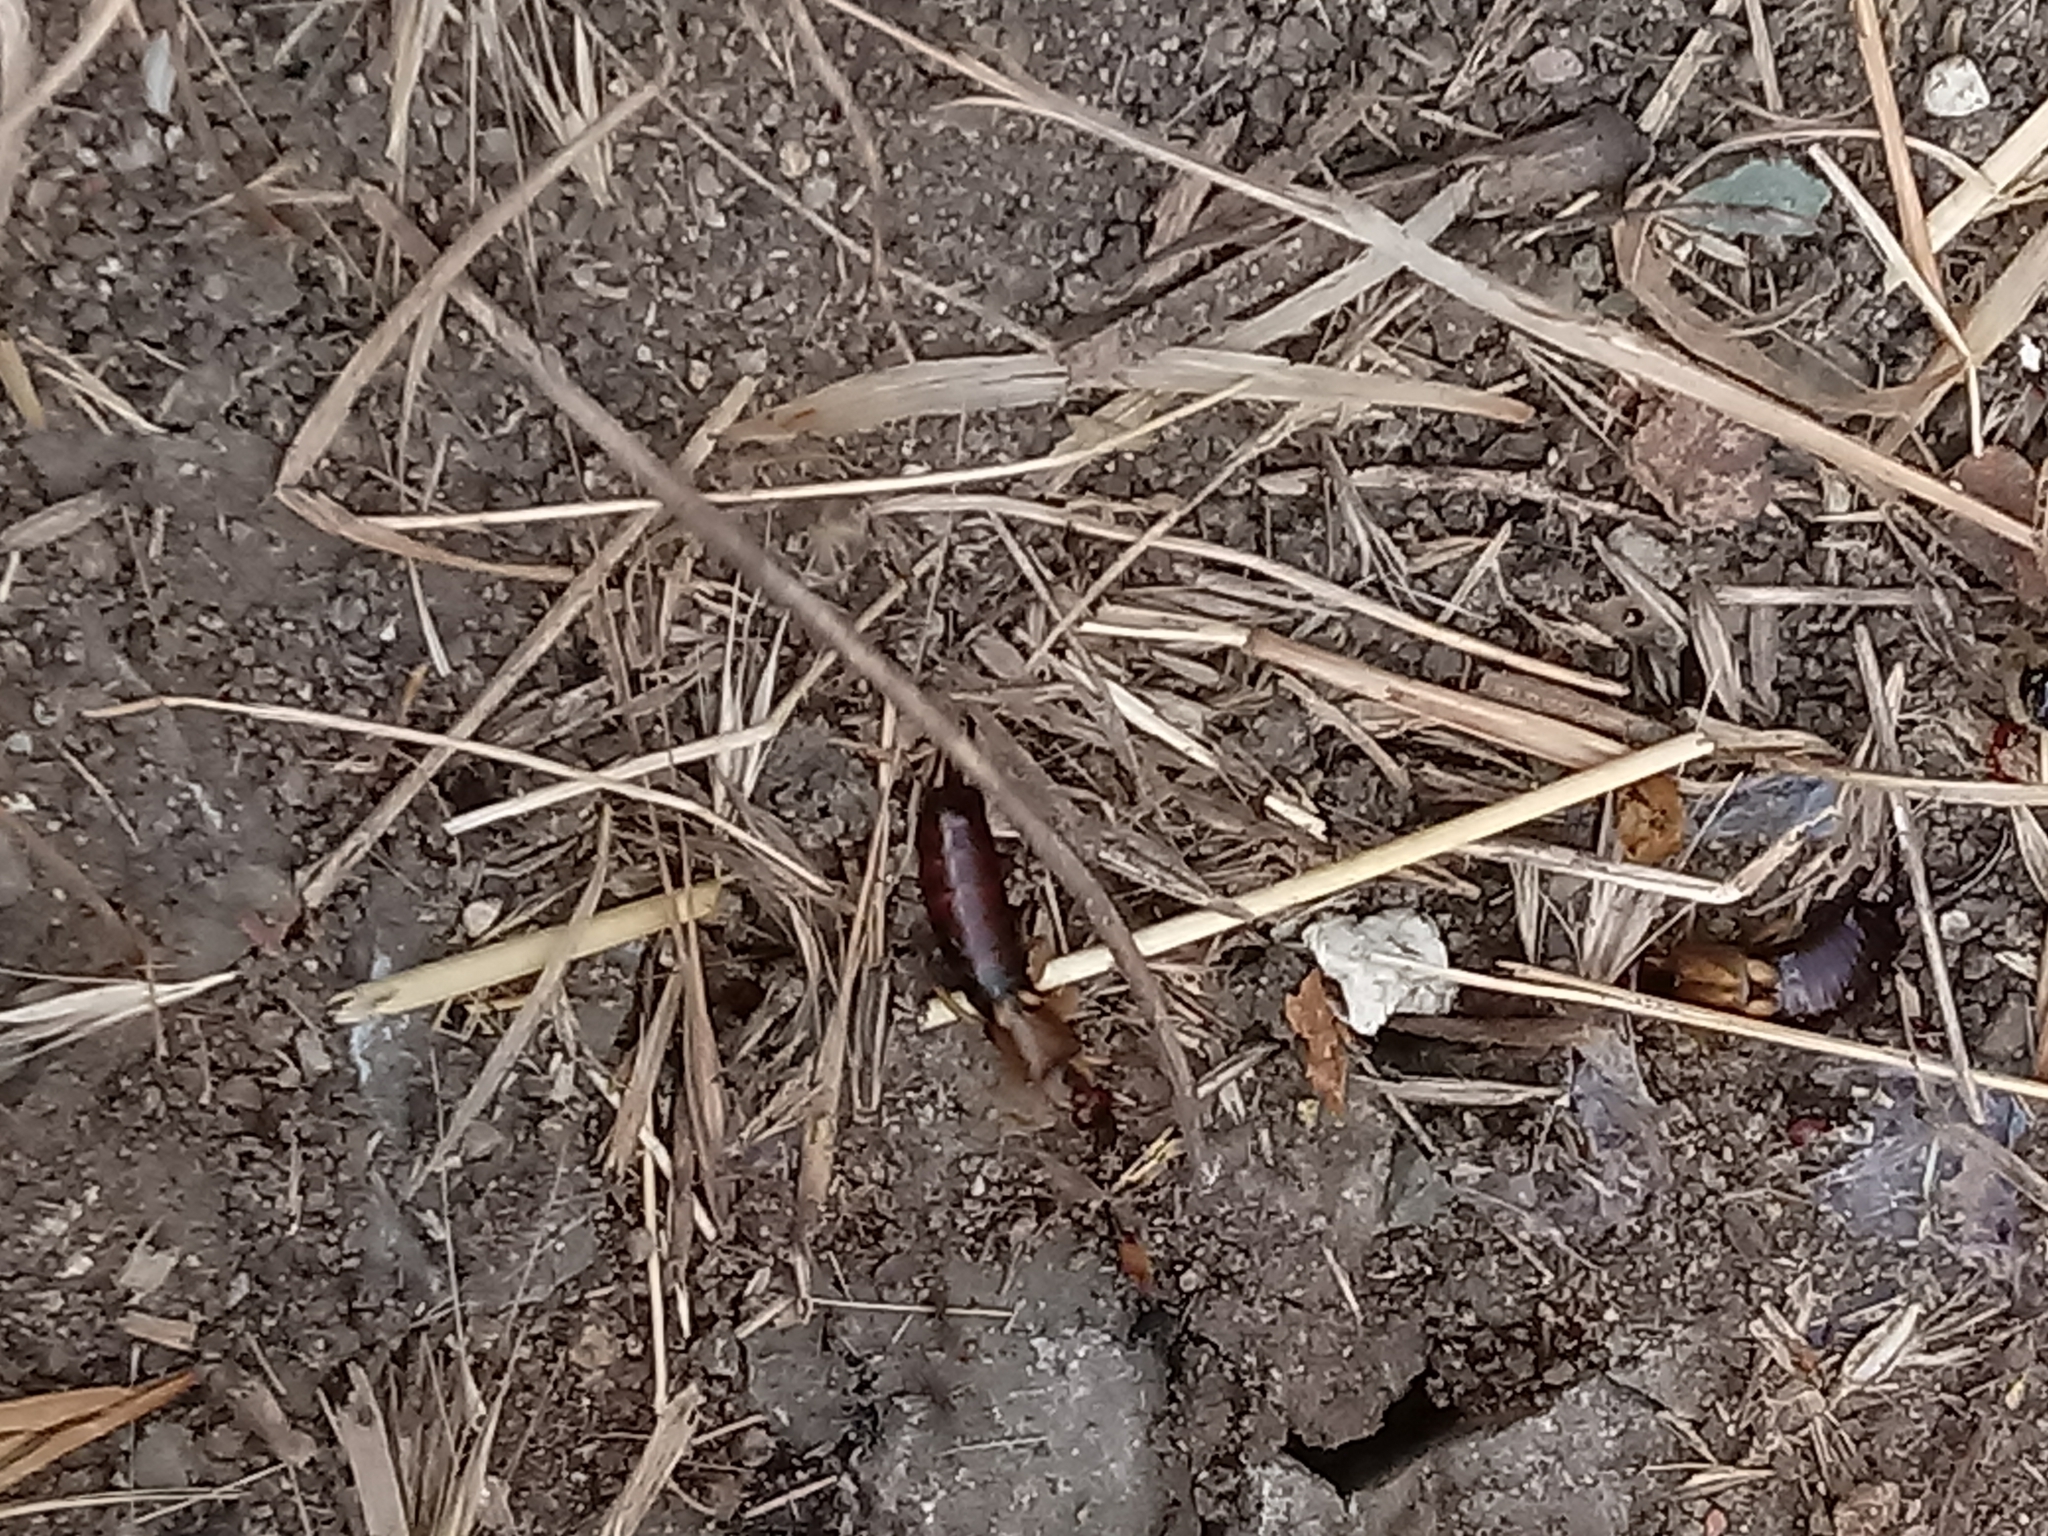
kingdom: Animalia
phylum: Arthropoda
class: Insecta
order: Dermaptera
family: Forficulidae
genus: Forficula
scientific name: Forficula
